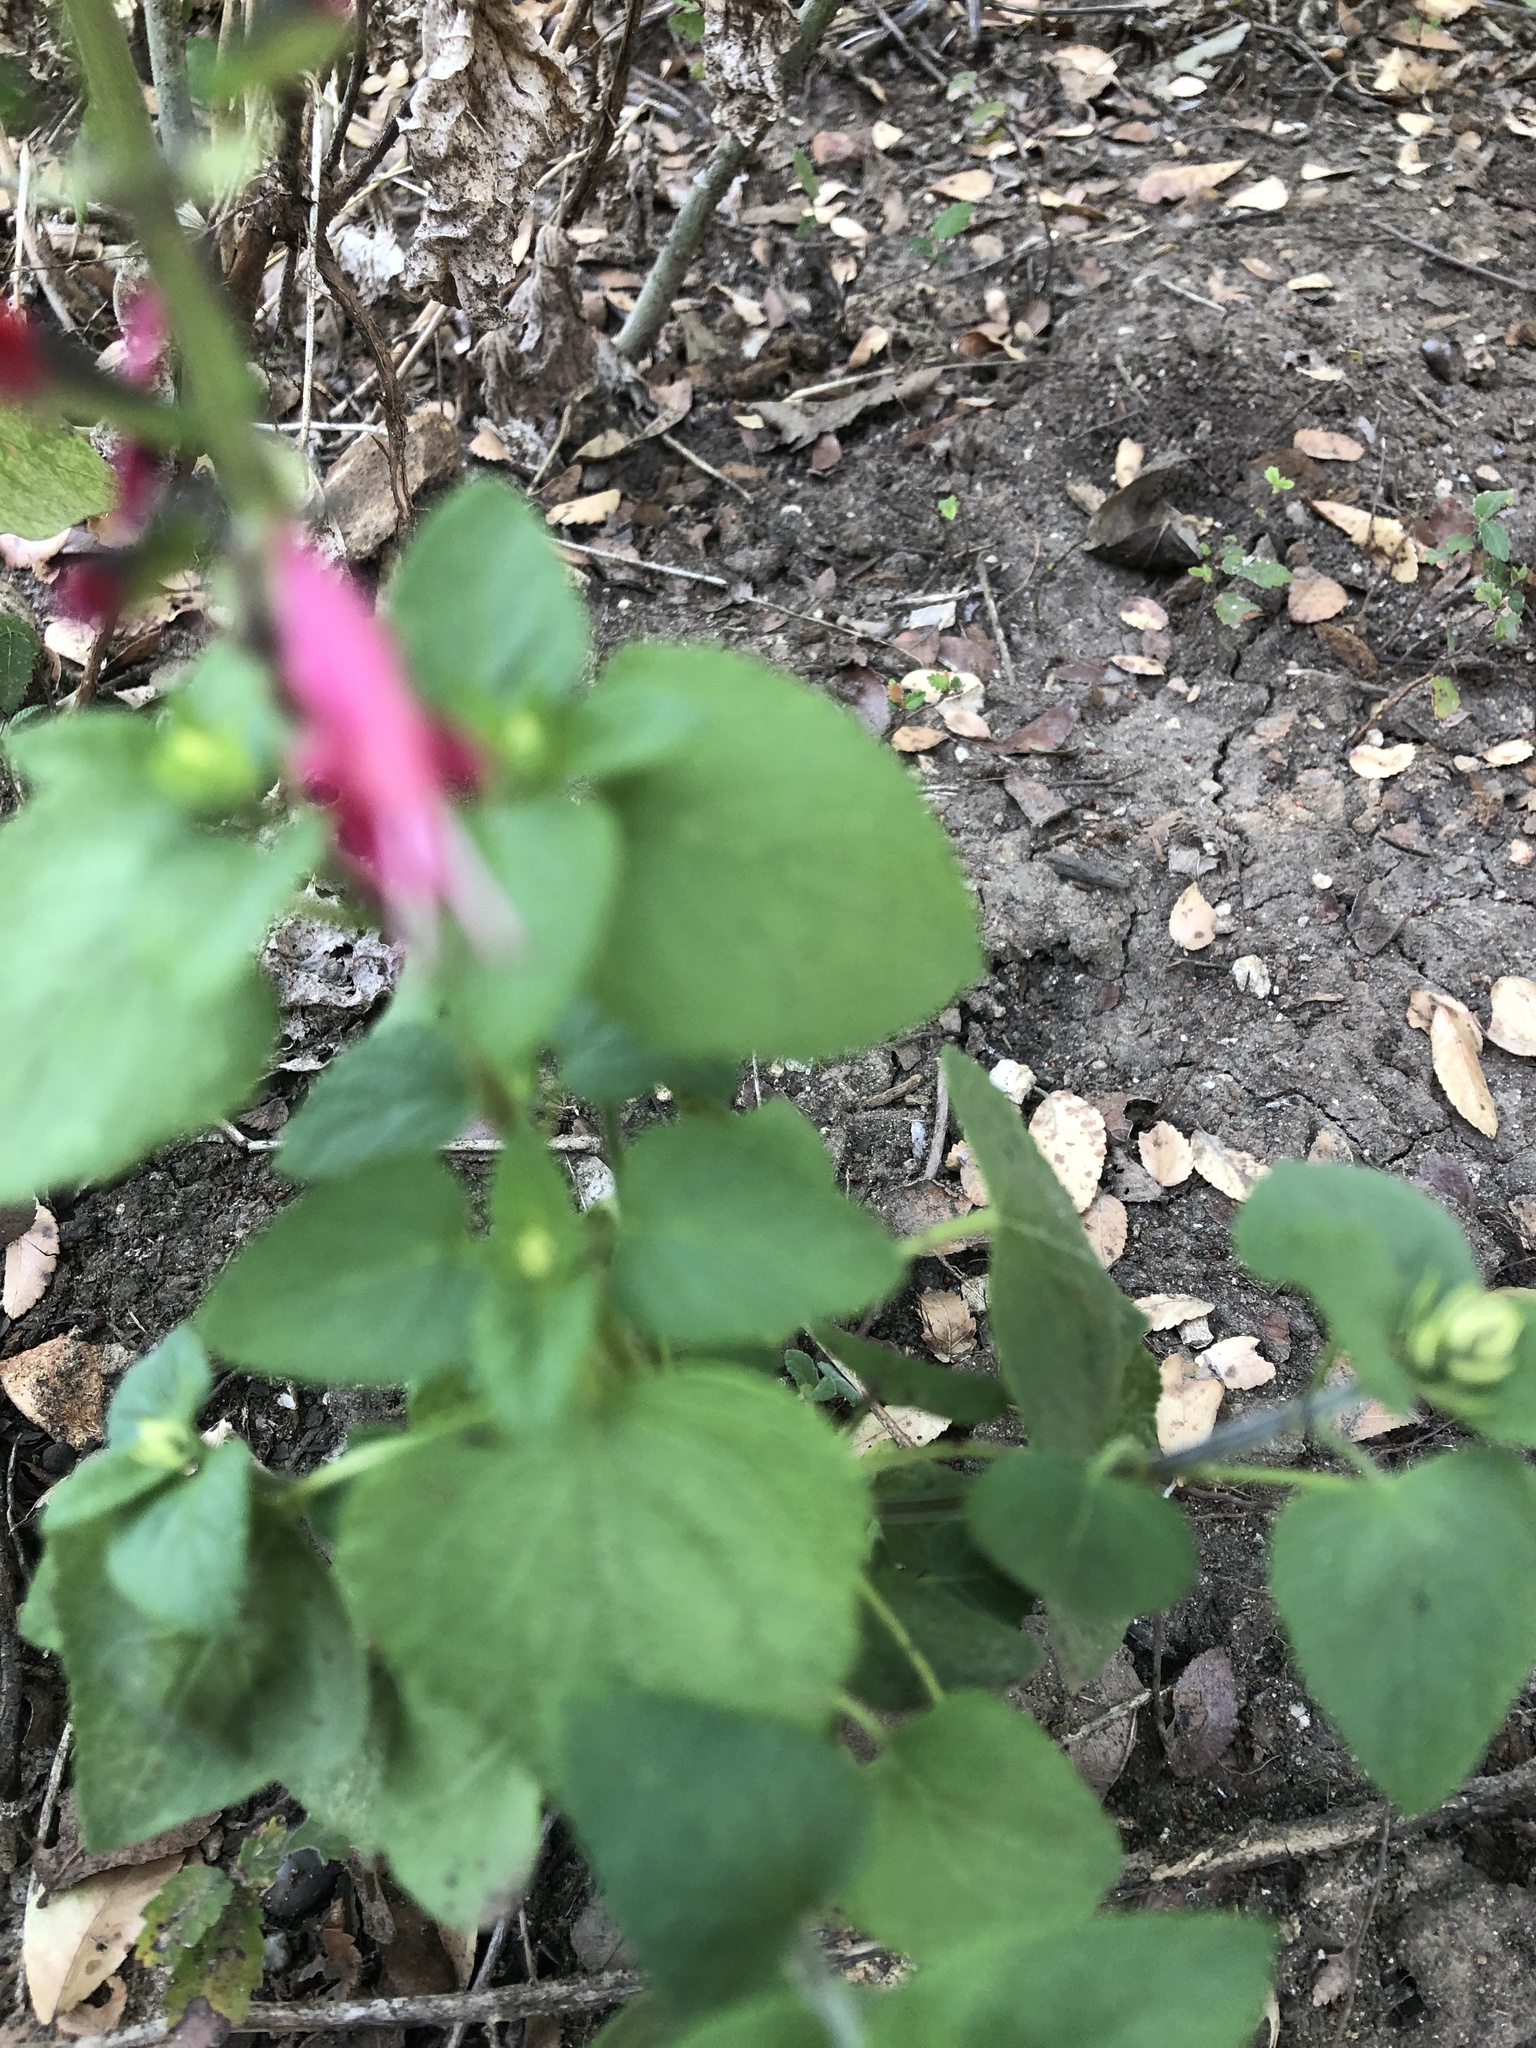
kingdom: Plantae
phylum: Tracheophyta
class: Magnoliopsida
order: Lamiales
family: Lamiaceae
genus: Salvia
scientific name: Salvia coccinea
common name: Blood sage
